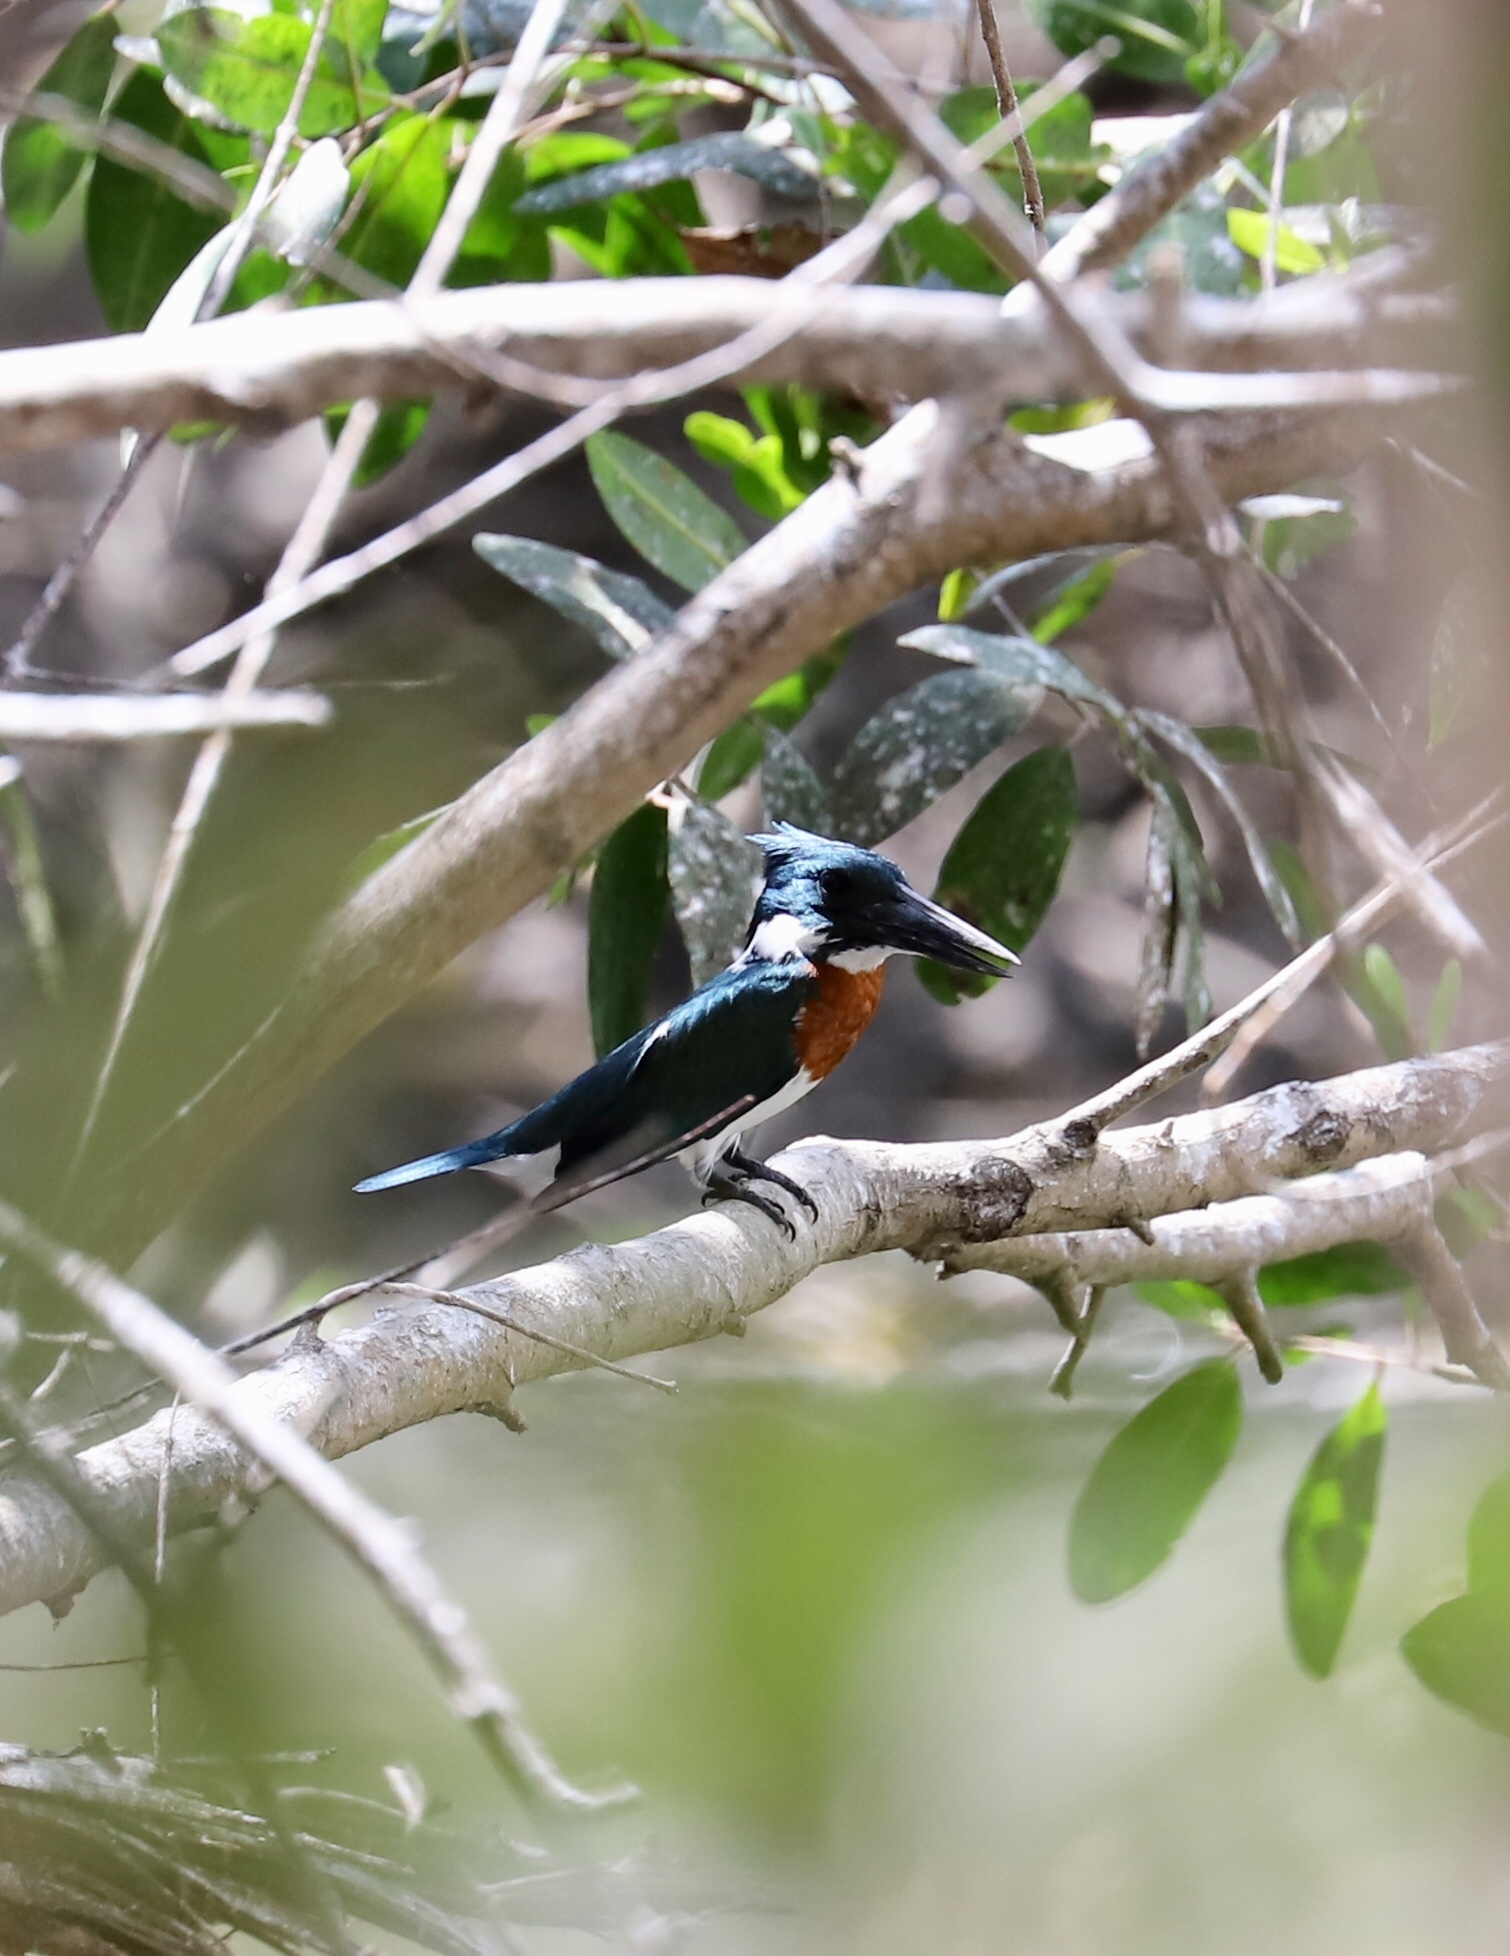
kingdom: Animalia
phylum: Chordata
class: Aves
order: Coraciiformes
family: Alcedinidae
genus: Chloroceryle
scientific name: Chloroceryle amazona
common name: Amazon kingfisher
